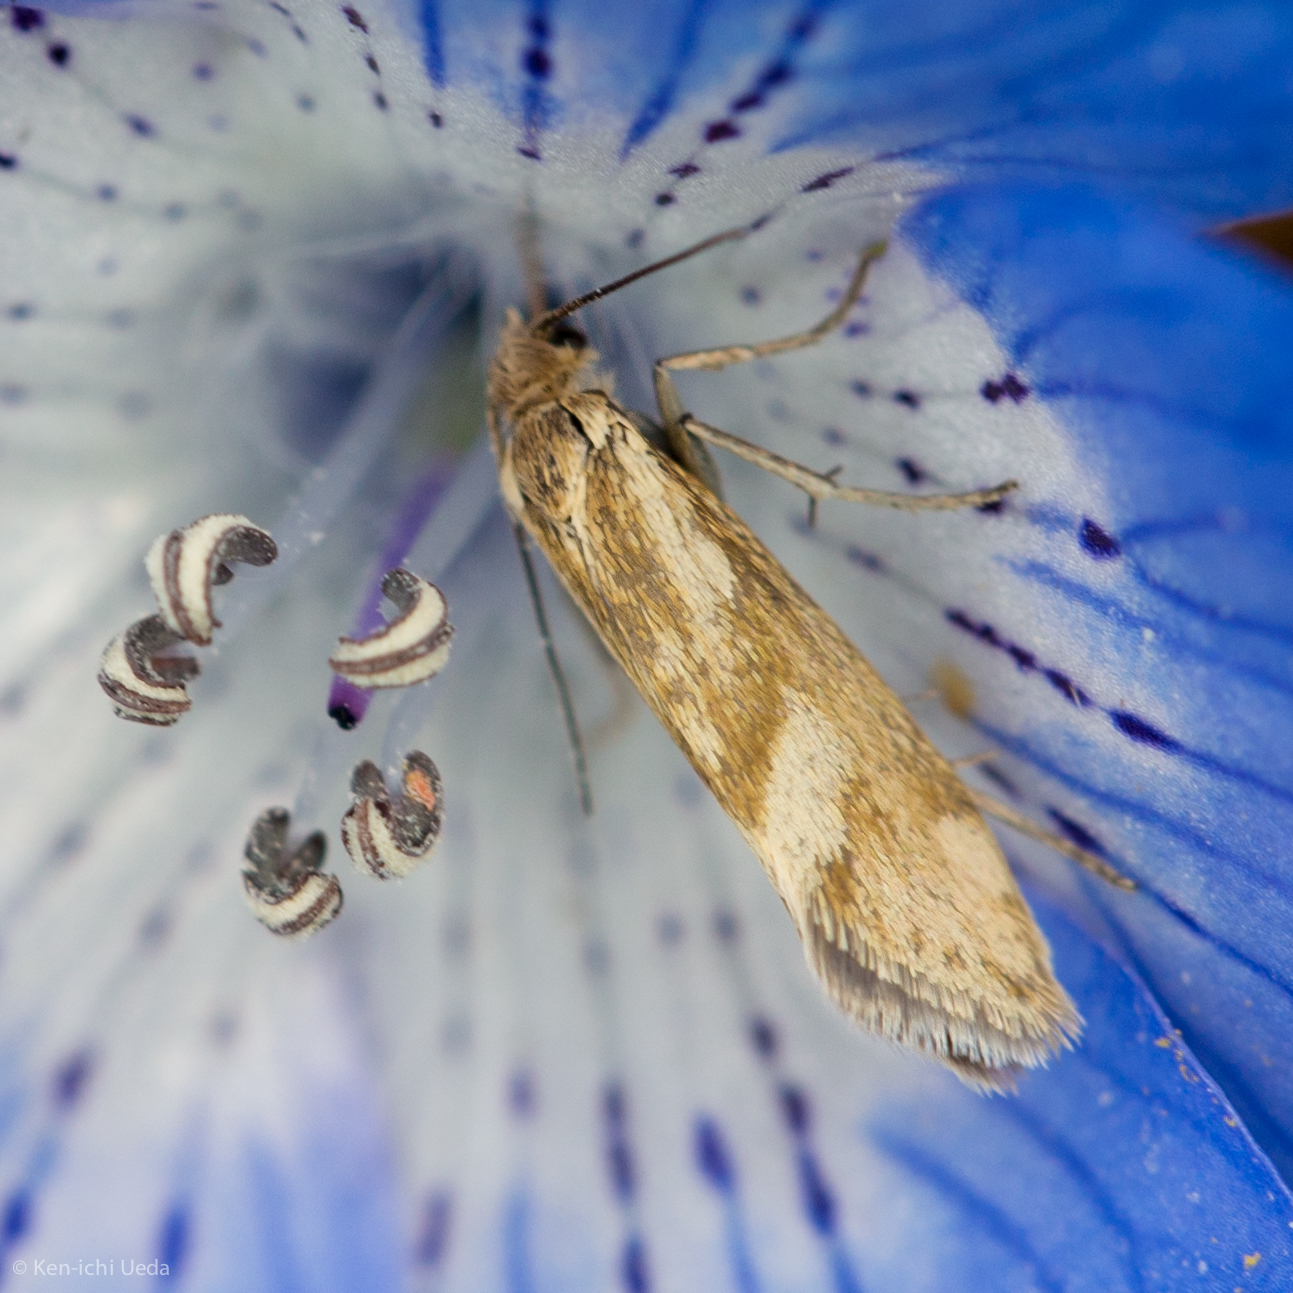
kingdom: Animalia
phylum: Arthropoda
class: Insecta
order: Lepidoptera
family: Prodoxidae
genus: Greya
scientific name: Greya obscura
